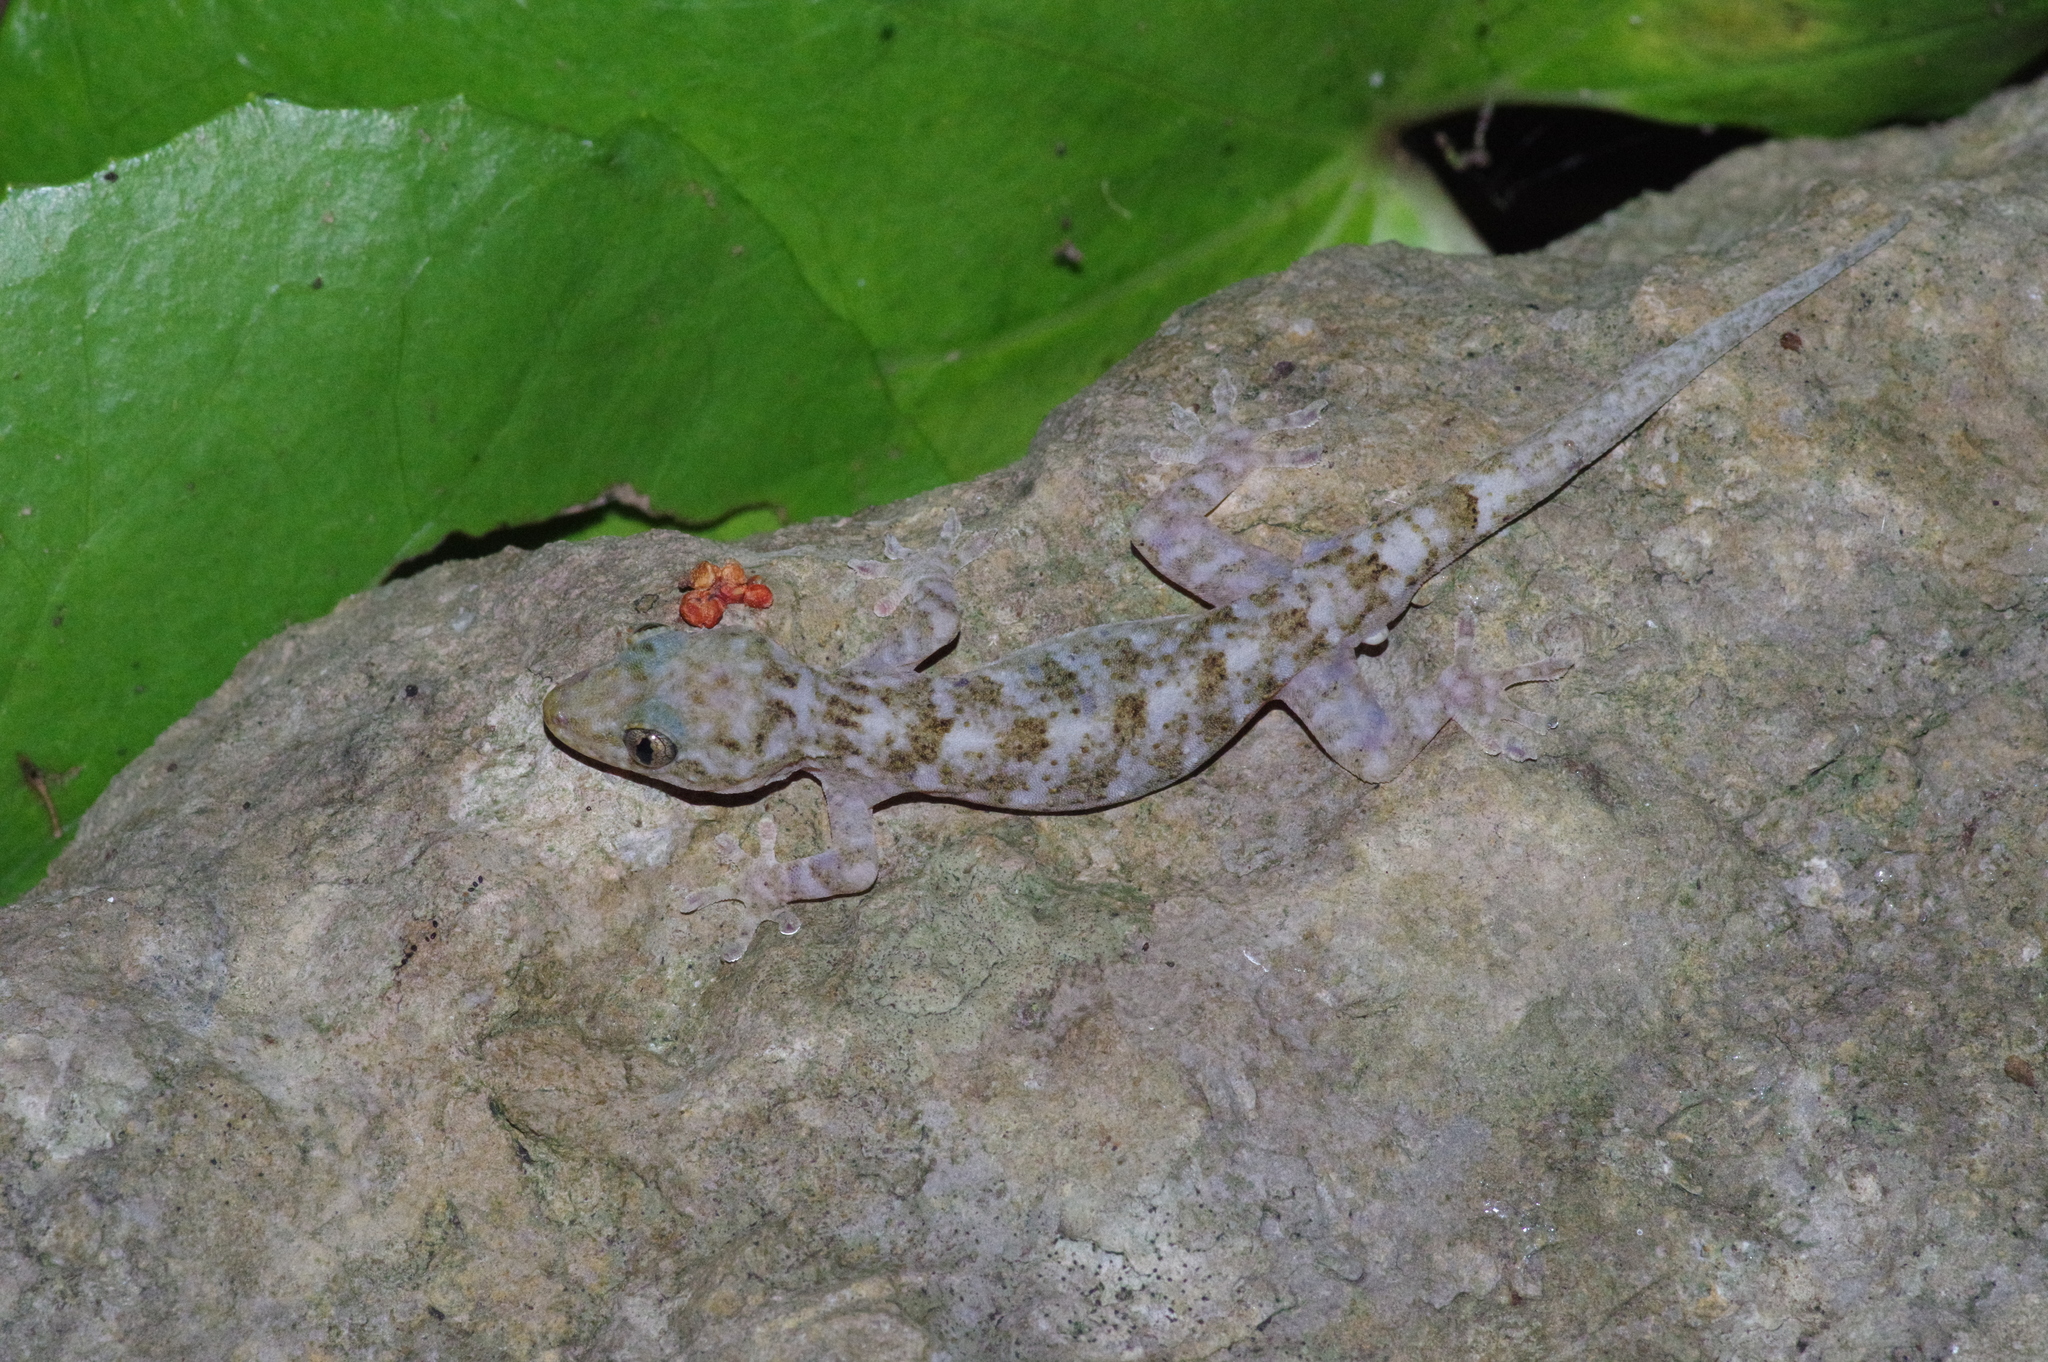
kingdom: Animalia
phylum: Chordata
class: Squamata
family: Gekkonidae
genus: Gekko
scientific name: Gekko hokouensis
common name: Kwangsi gecko
